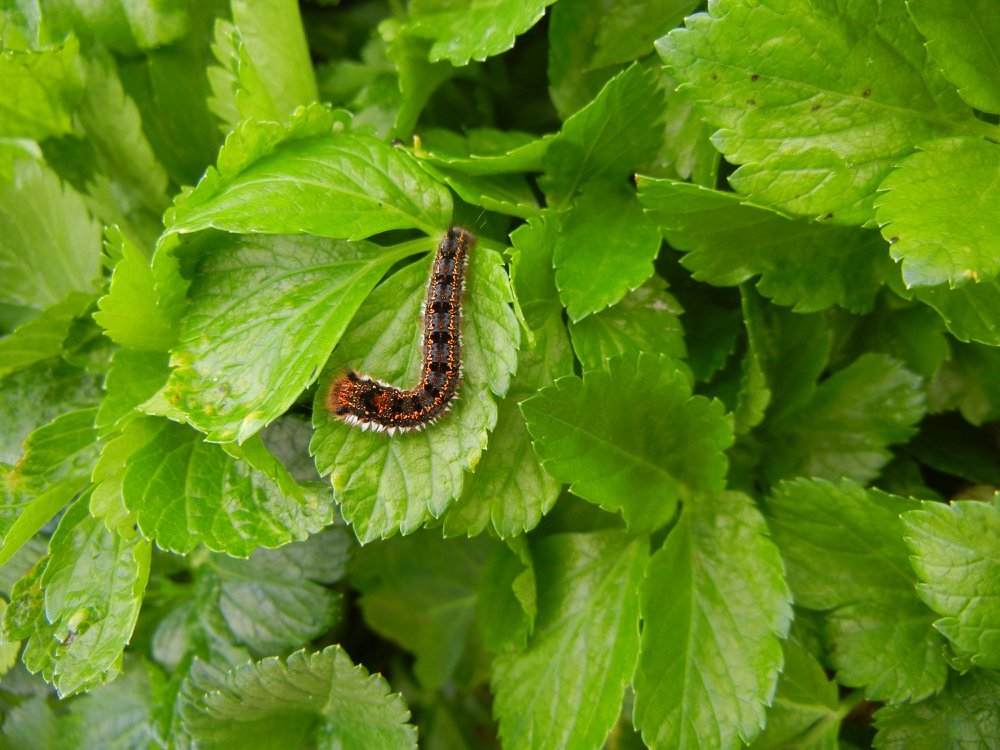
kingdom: Animalia
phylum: Arthropoda
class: Insecta
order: Lepidoptera
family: Lasiocampidae
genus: Euthrix
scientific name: Euthrix potatoria
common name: Drinker
